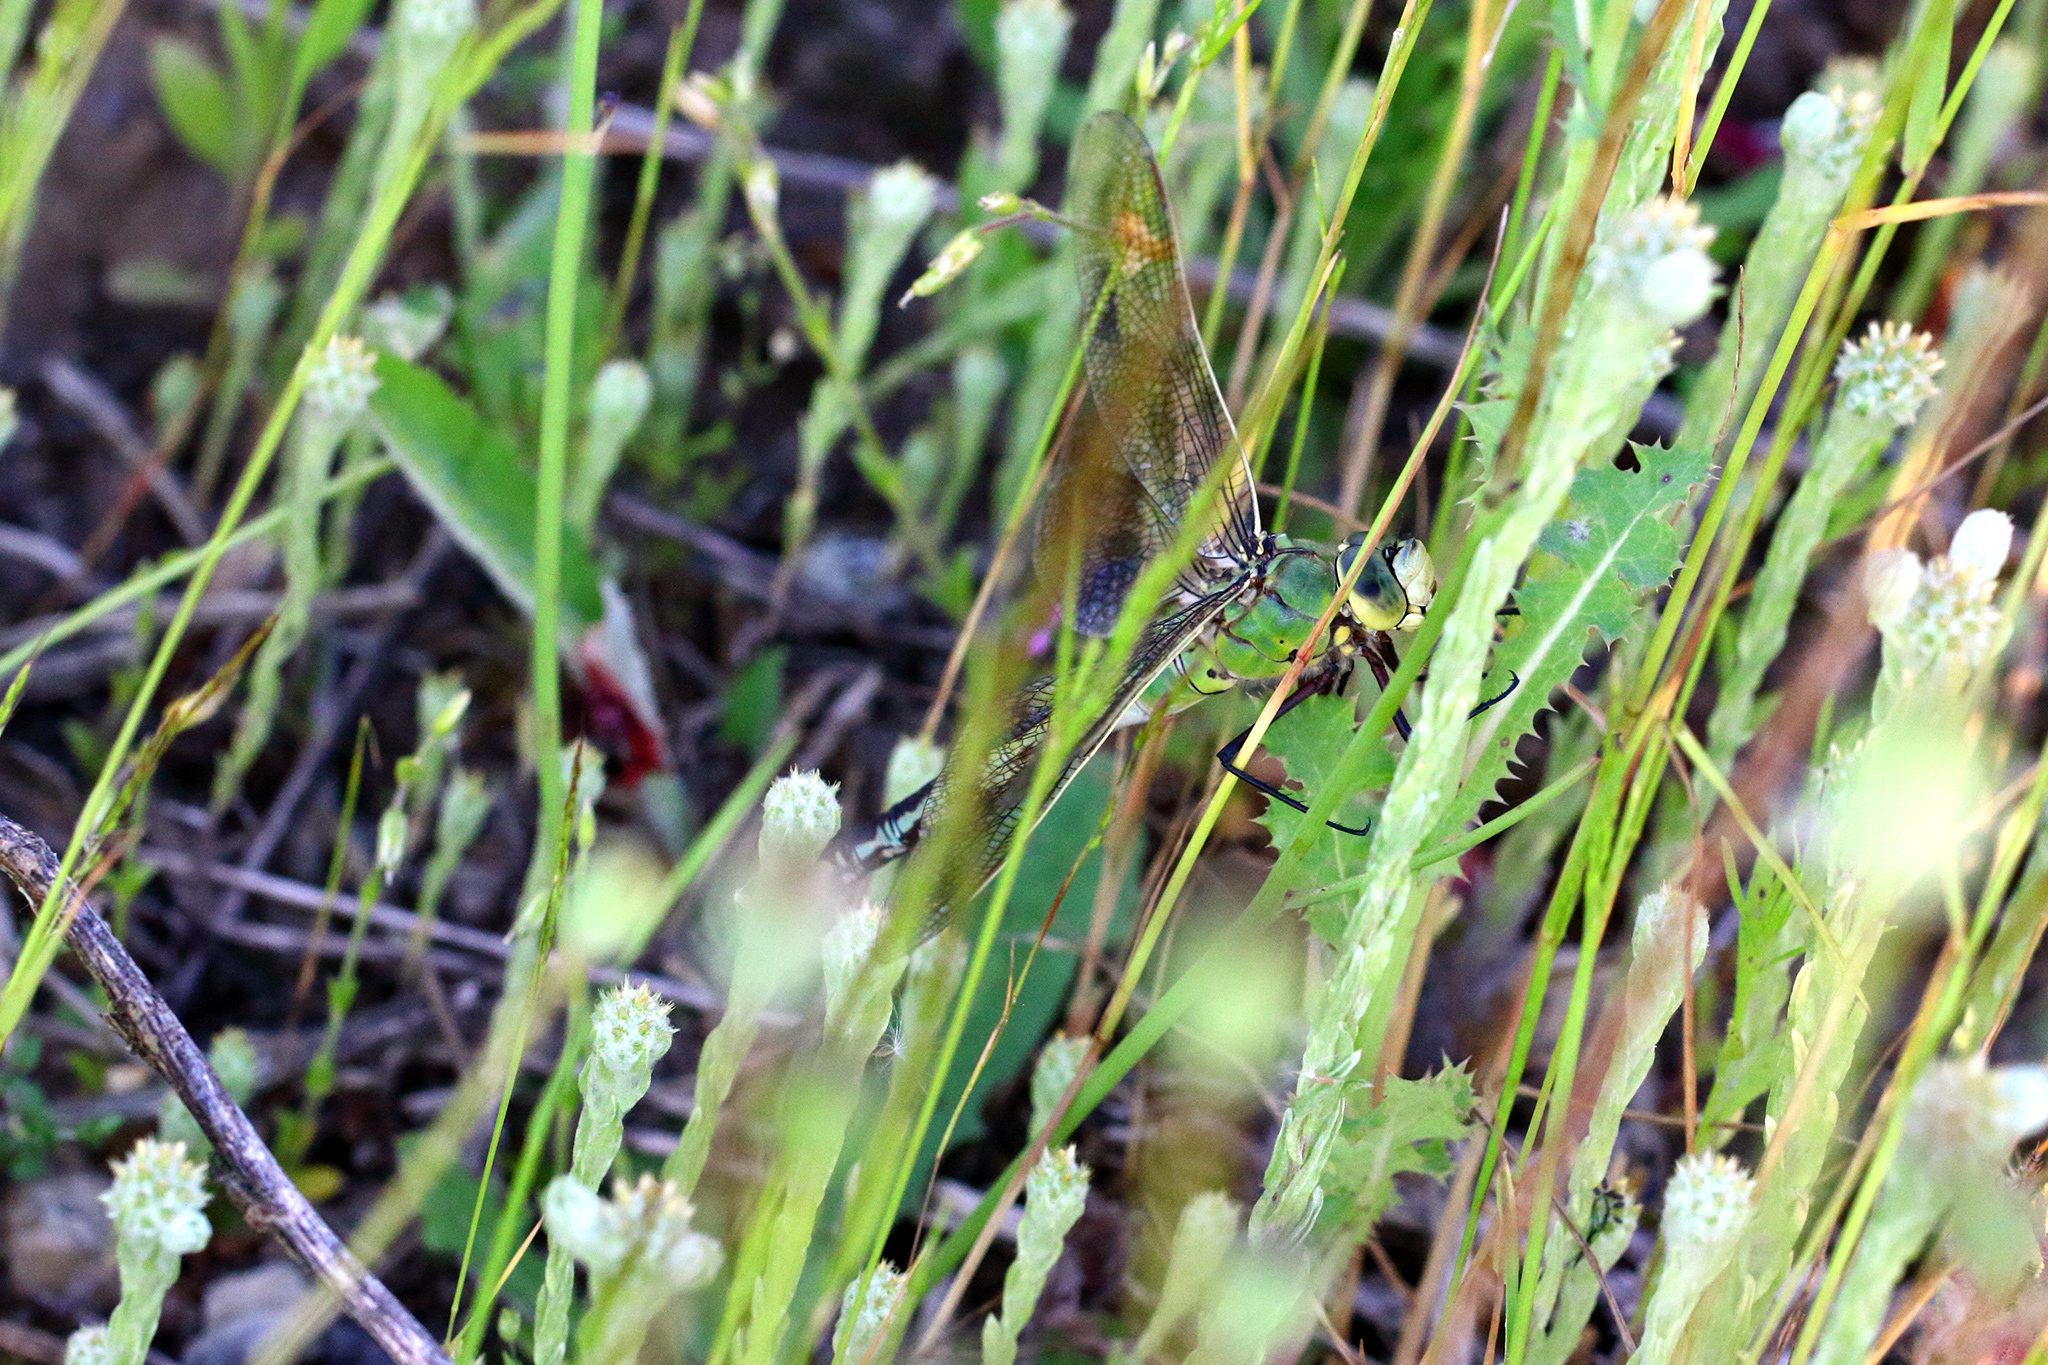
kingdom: Animalia
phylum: Arthropoda
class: Insecta
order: Odonata
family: Aeshnidae
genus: Anax
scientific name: Anax imperator
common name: Emperor dragonfly
